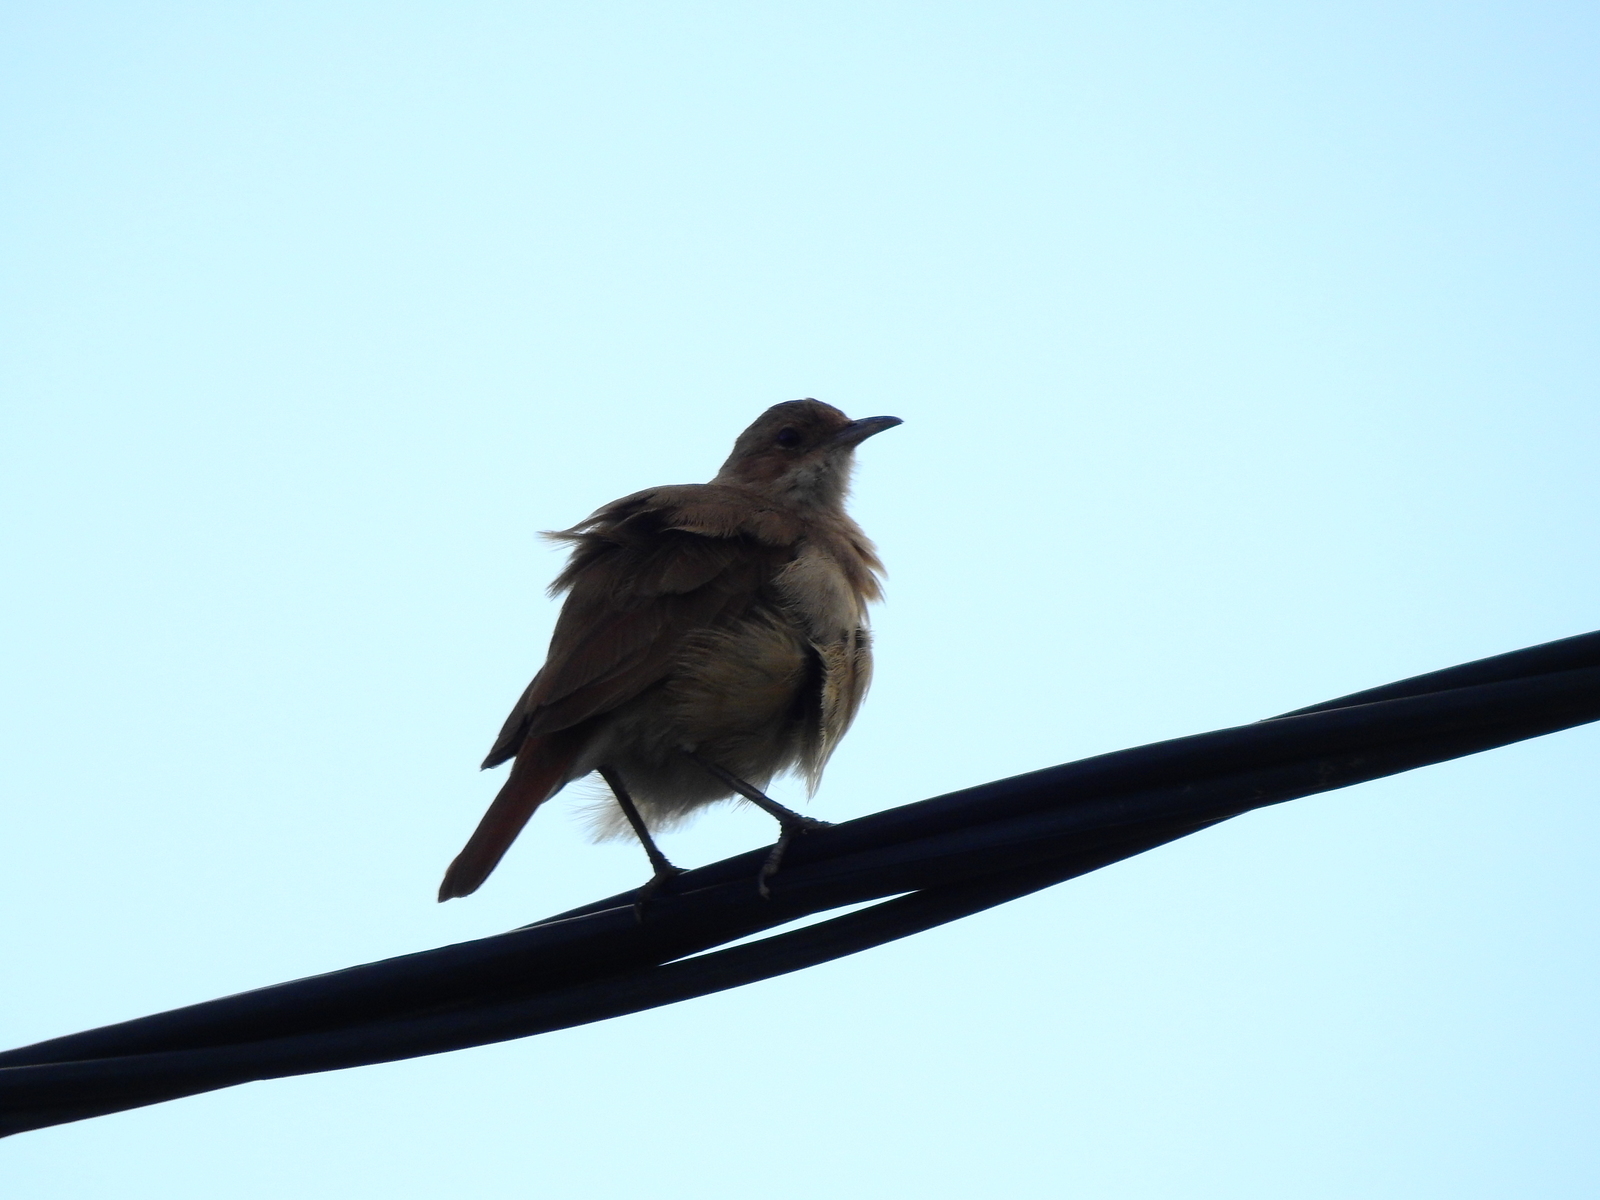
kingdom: Animalia
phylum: Chordata
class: Aves
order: Passeriformes
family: Furnariidae
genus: Furnarius
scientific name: Furnarius rufus
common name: Rufous hornero
